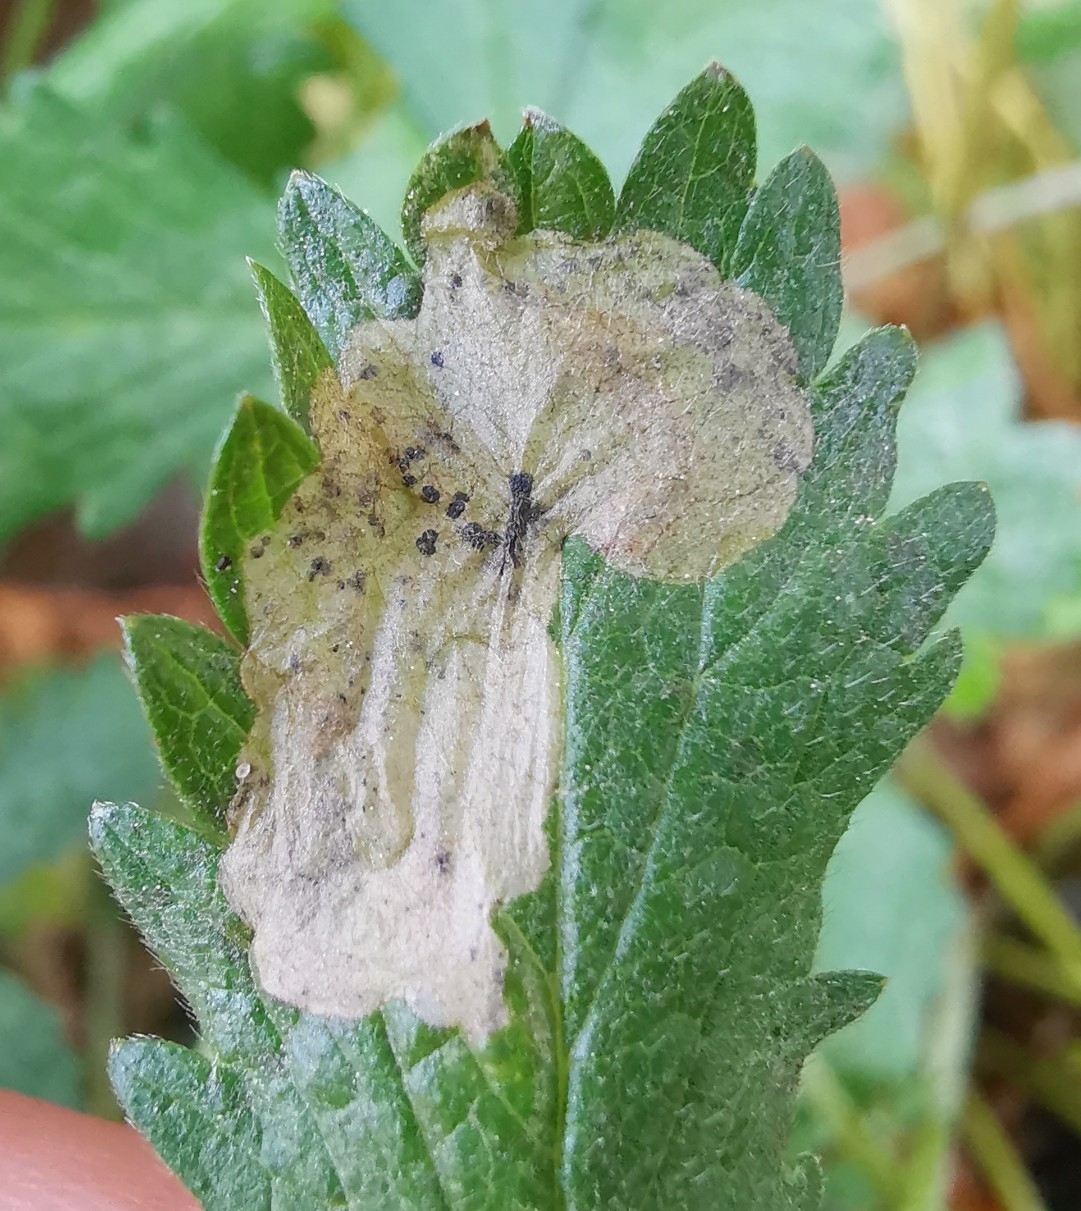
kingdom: Animalia
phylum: Arthropoda
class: Insecta
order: Hymenoptera
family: Tenthredinidae
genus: Fenella
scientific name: Fenella nigrita
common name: Tenthredid wasp
